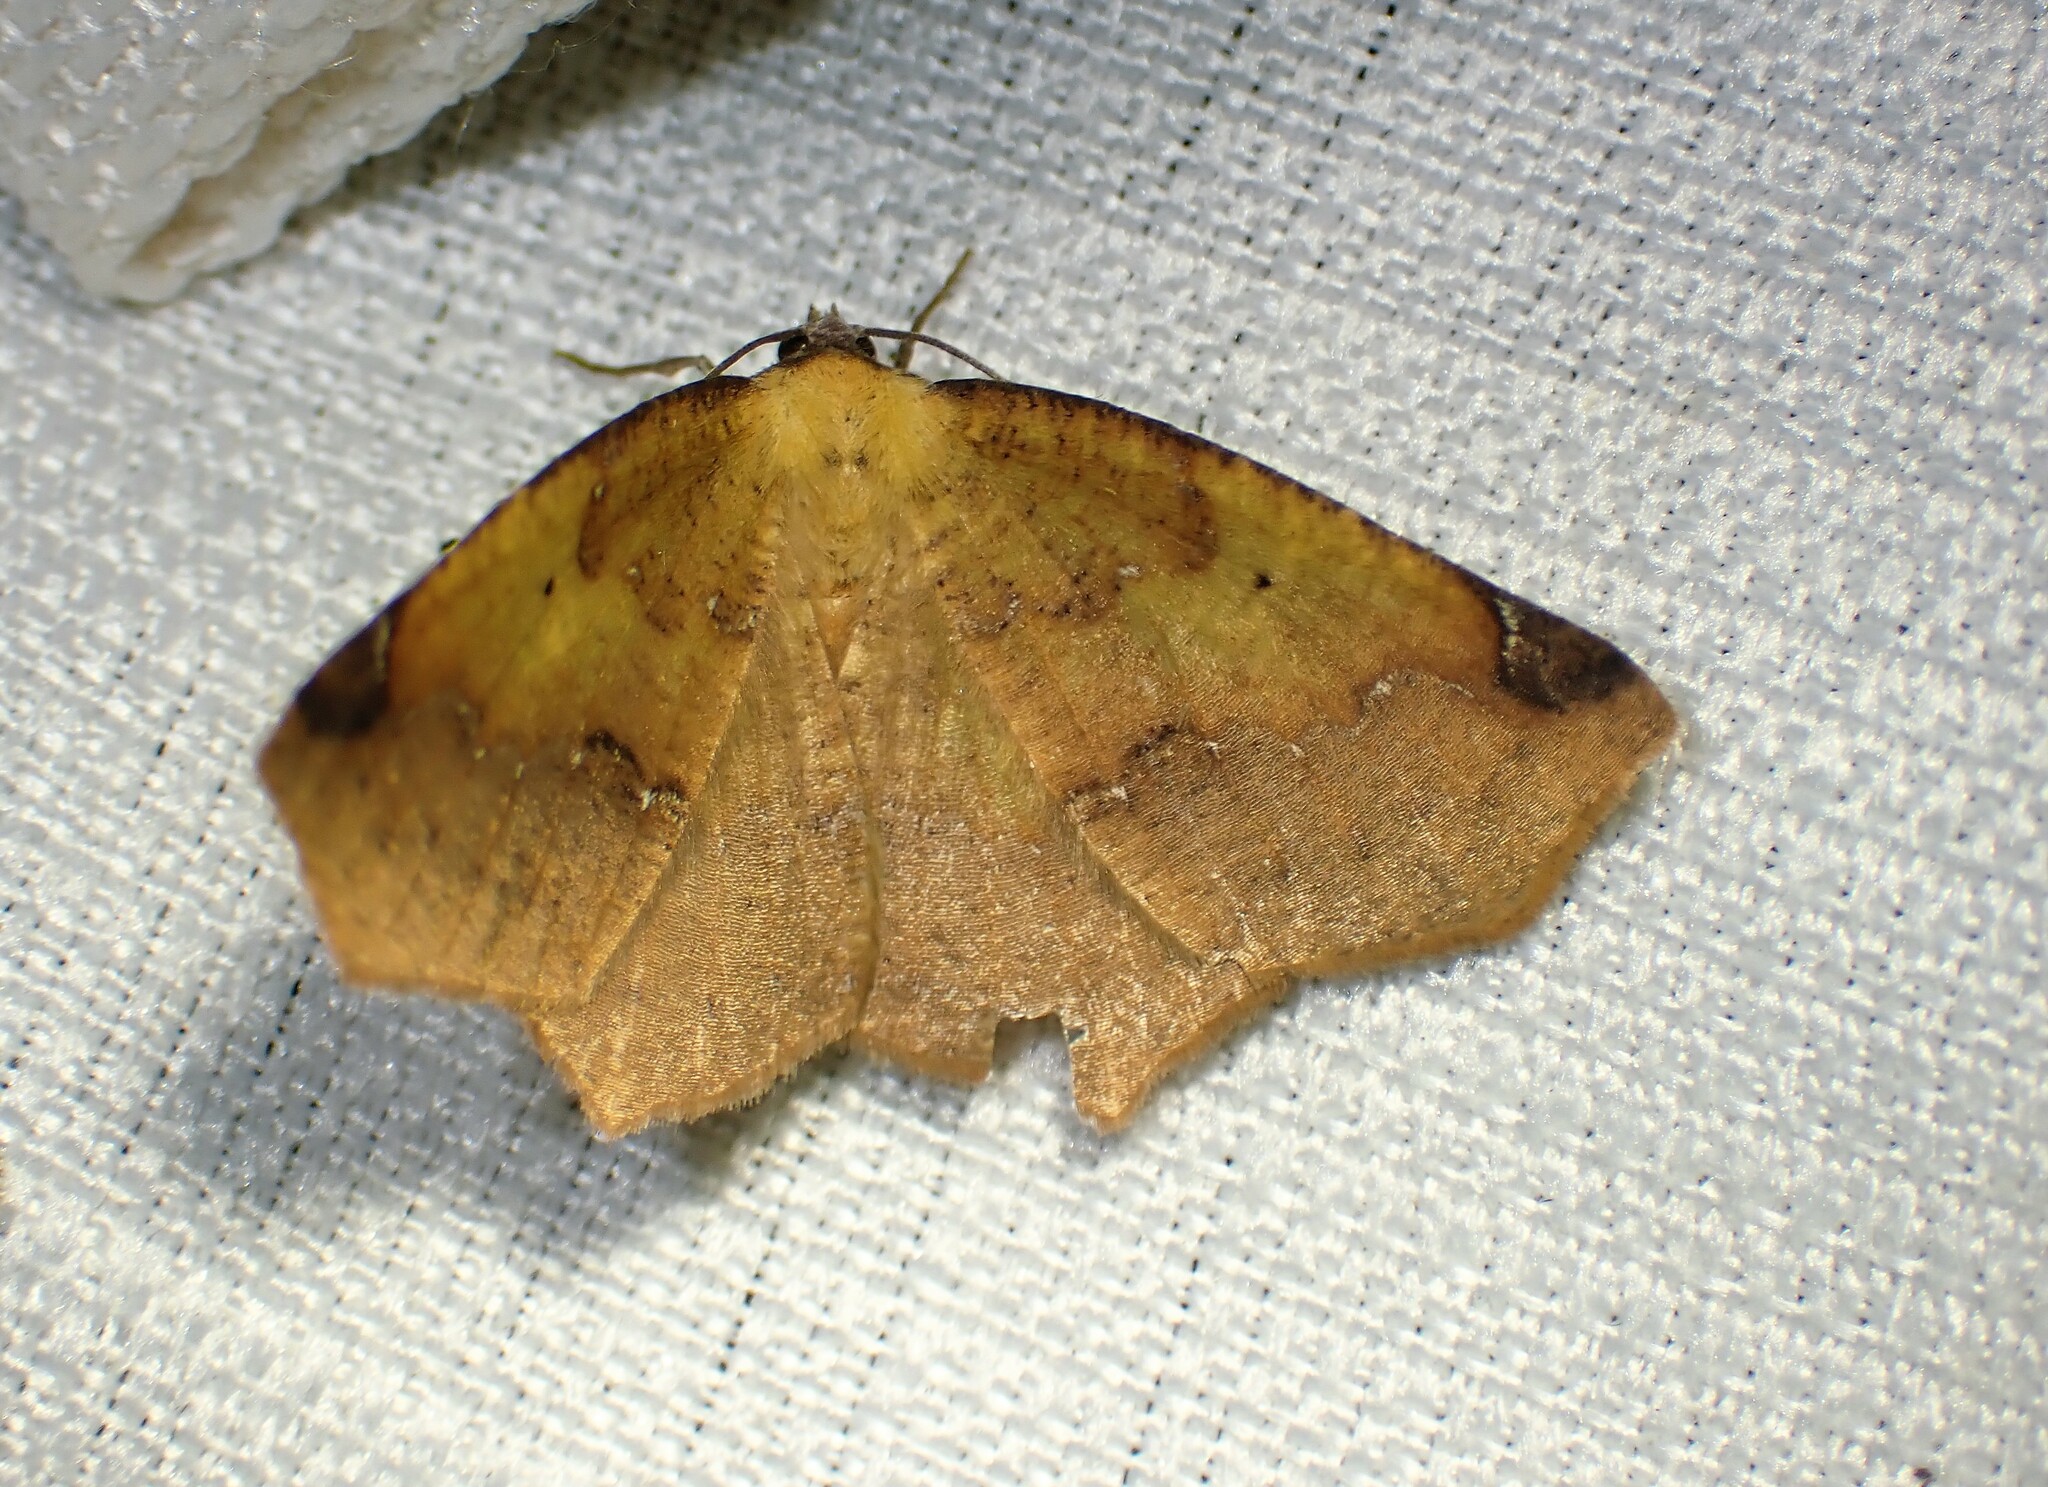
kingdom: Animalia
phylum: Arthropoda
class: Insecta
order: Lepidoptera
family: Geometridae
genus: Antepione
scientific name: Antepione thisoaria
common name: Variable antipione
